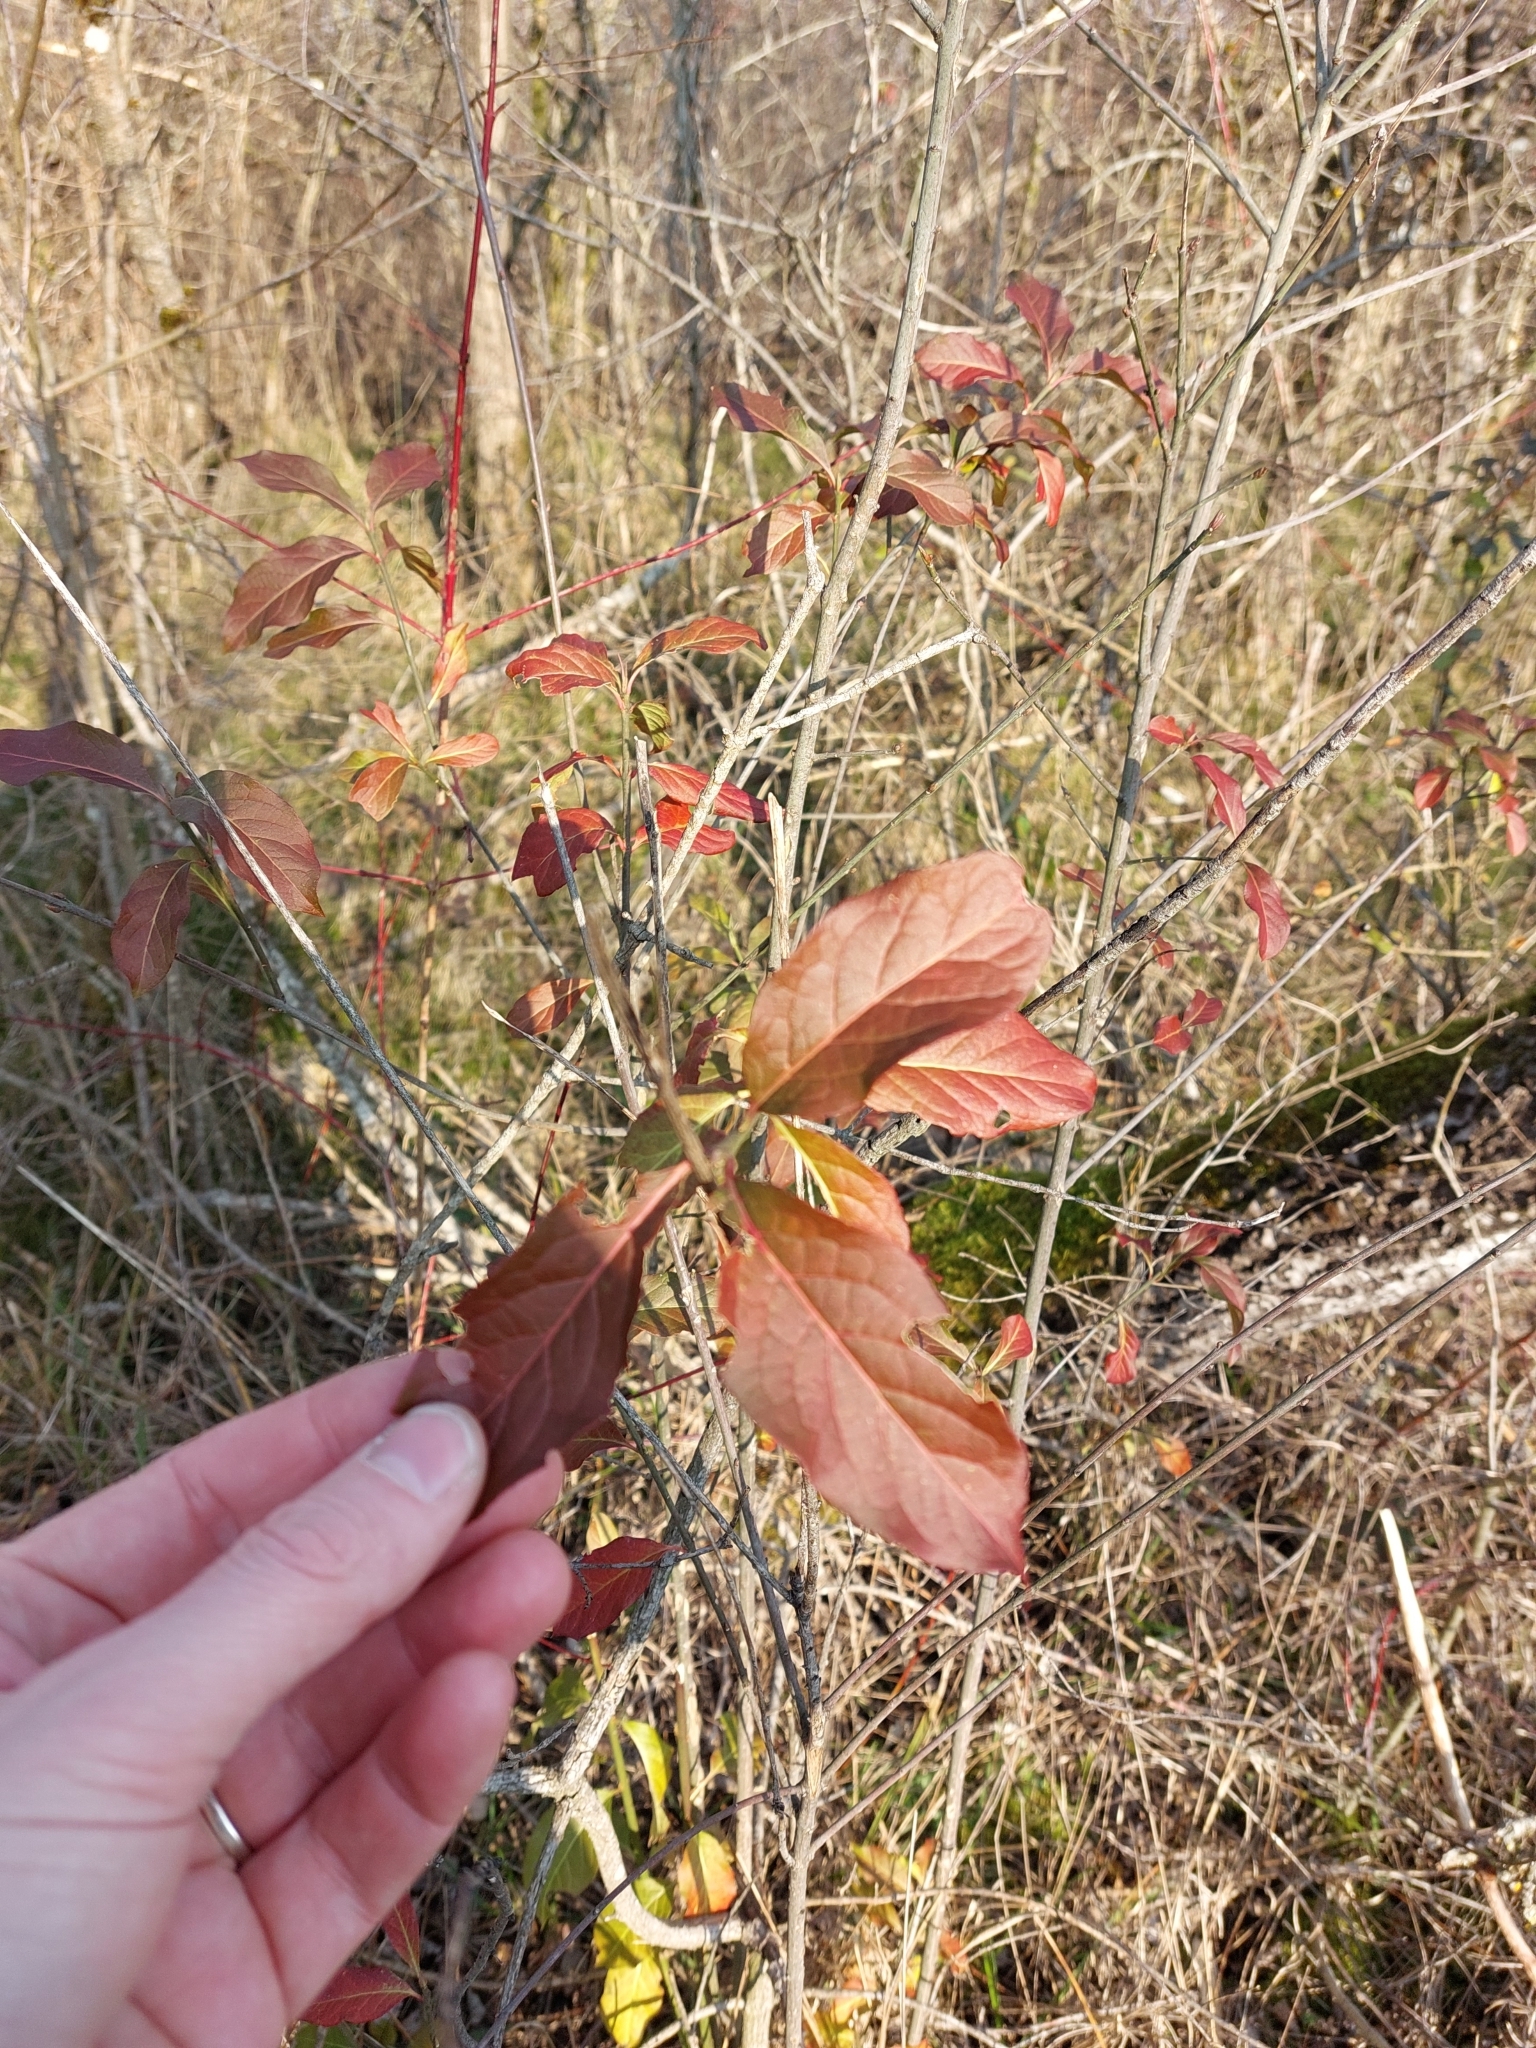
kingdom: Plantae
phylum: Tracheophyta
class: Magnoliopsida
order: Celastrales
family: Celastraceae
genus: Euonymus
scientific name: Euonymus europaeus
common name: Spindle
